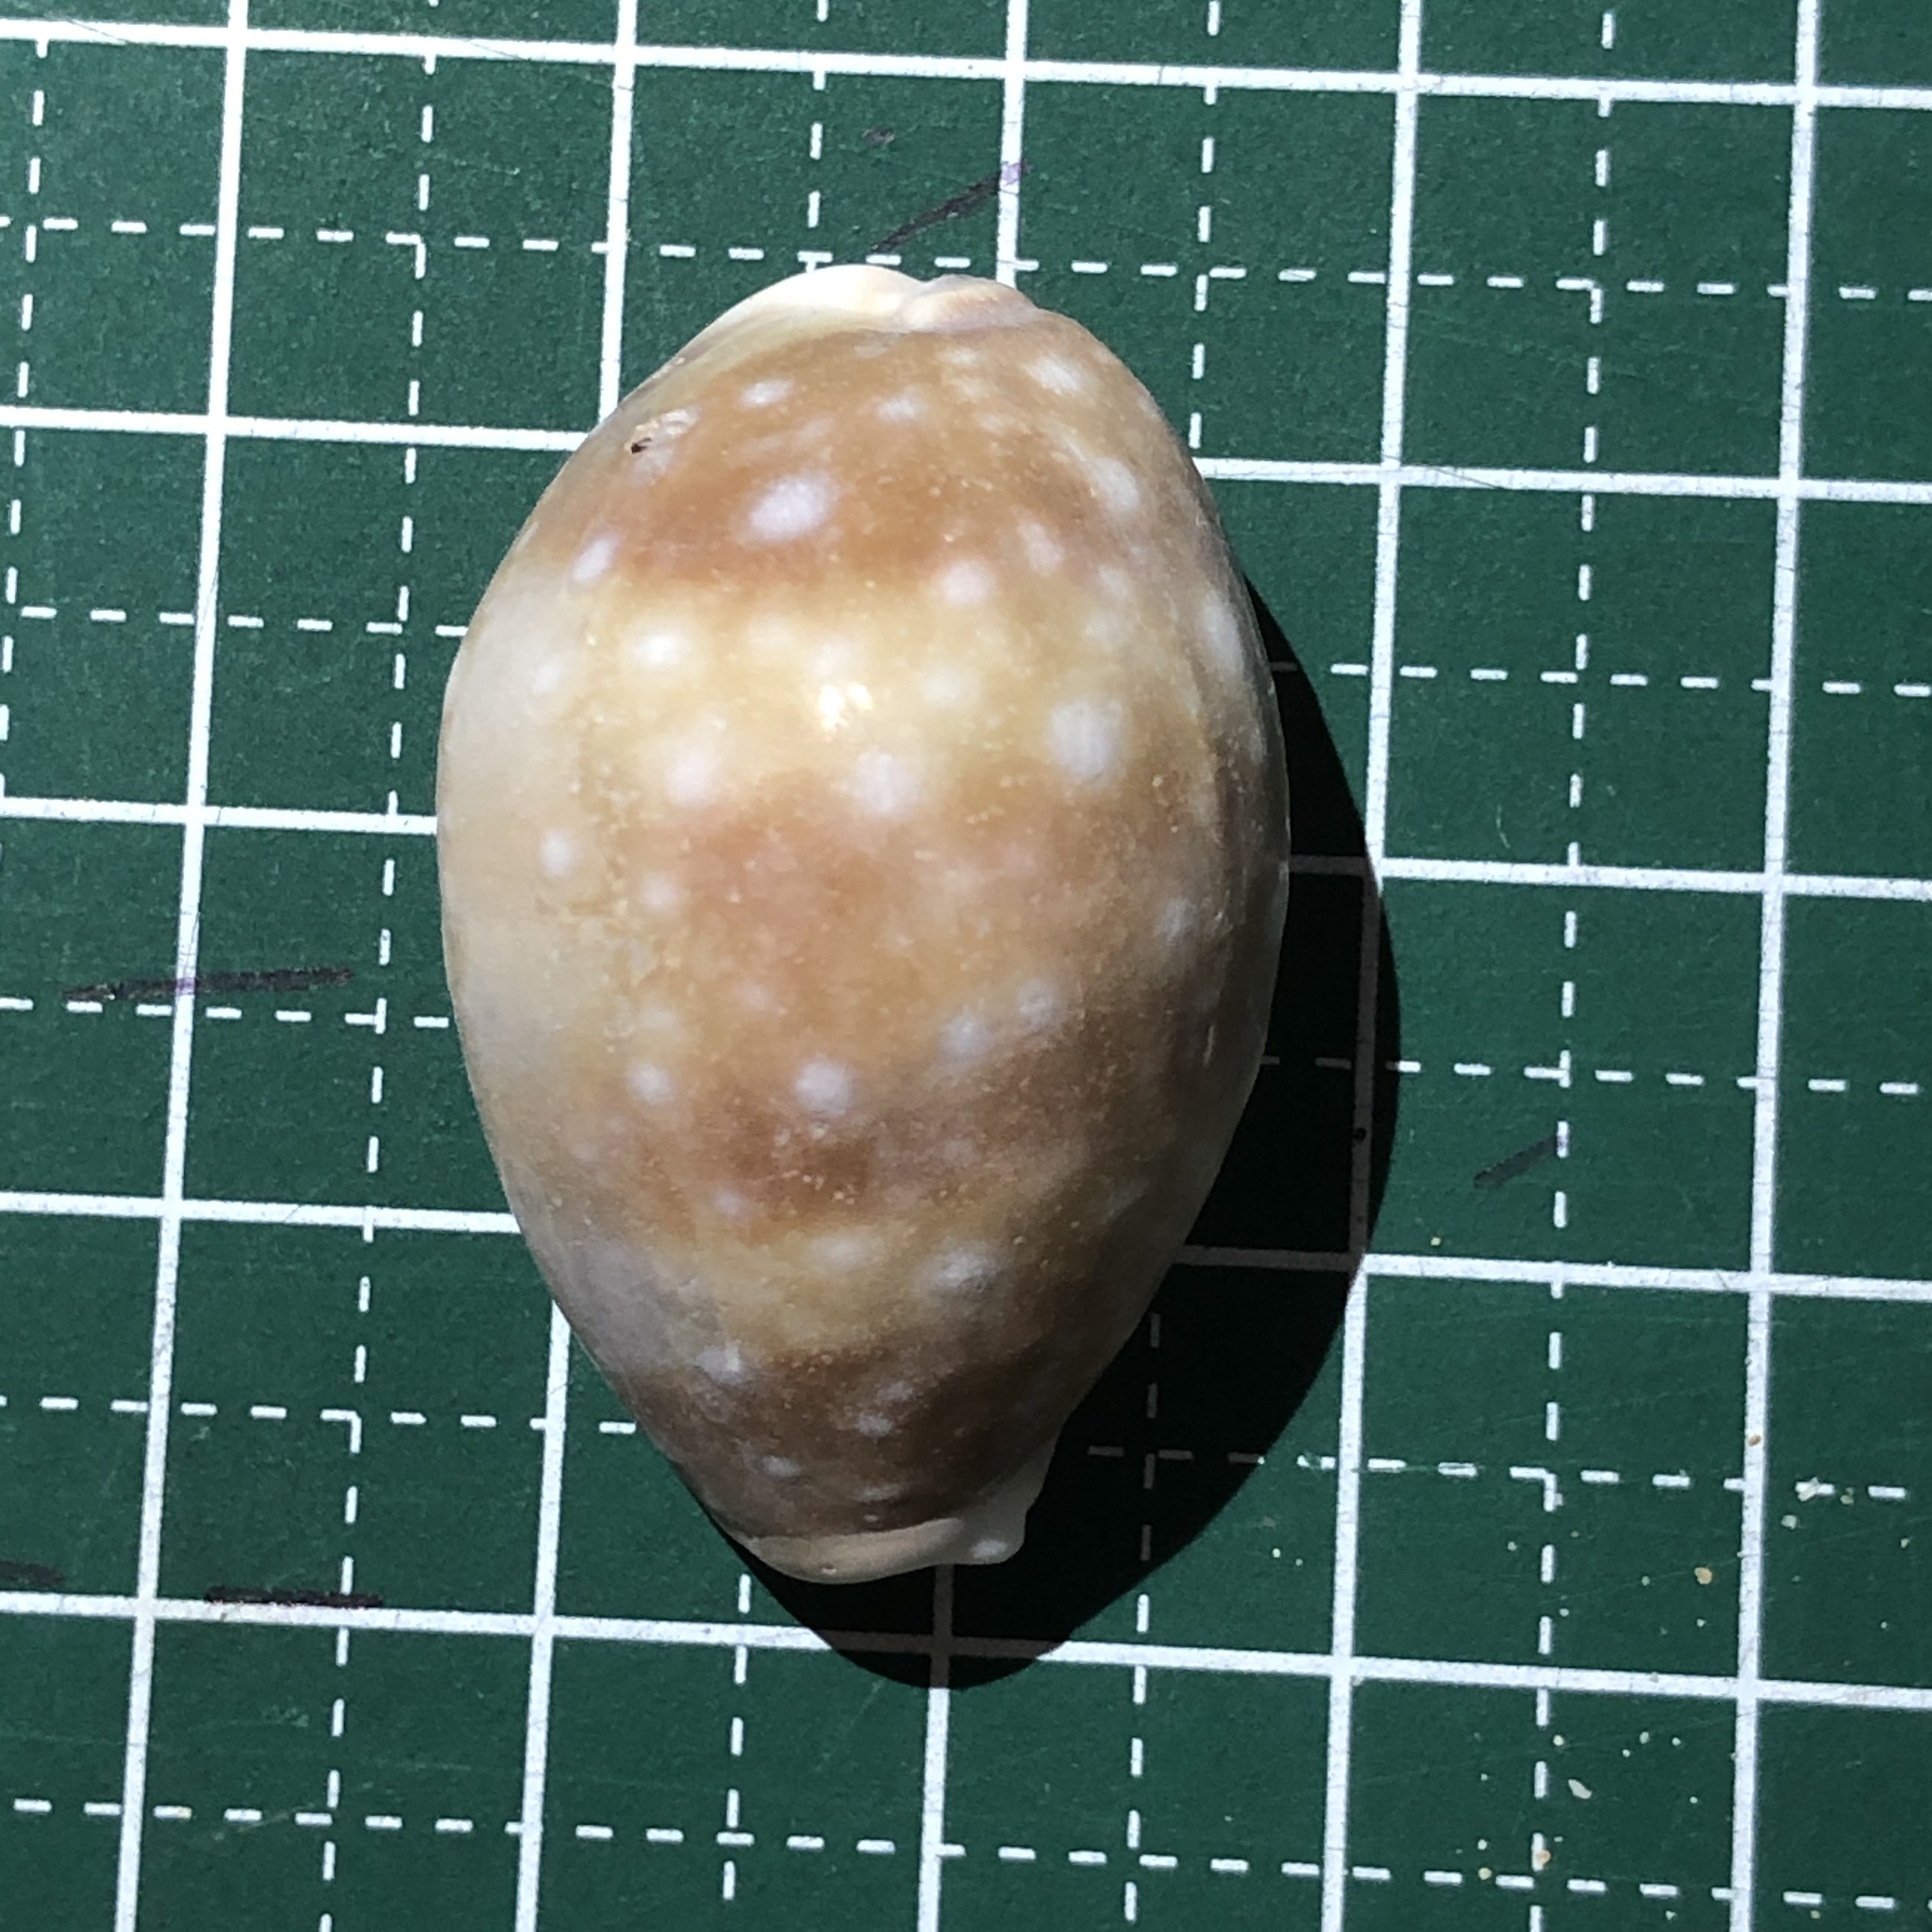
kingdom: Animalia
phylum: Mollusca
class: Gastropoda
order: Littorinimorpha
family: Cypraeidae
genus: Lyncina
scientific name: Lyncina vitellus
